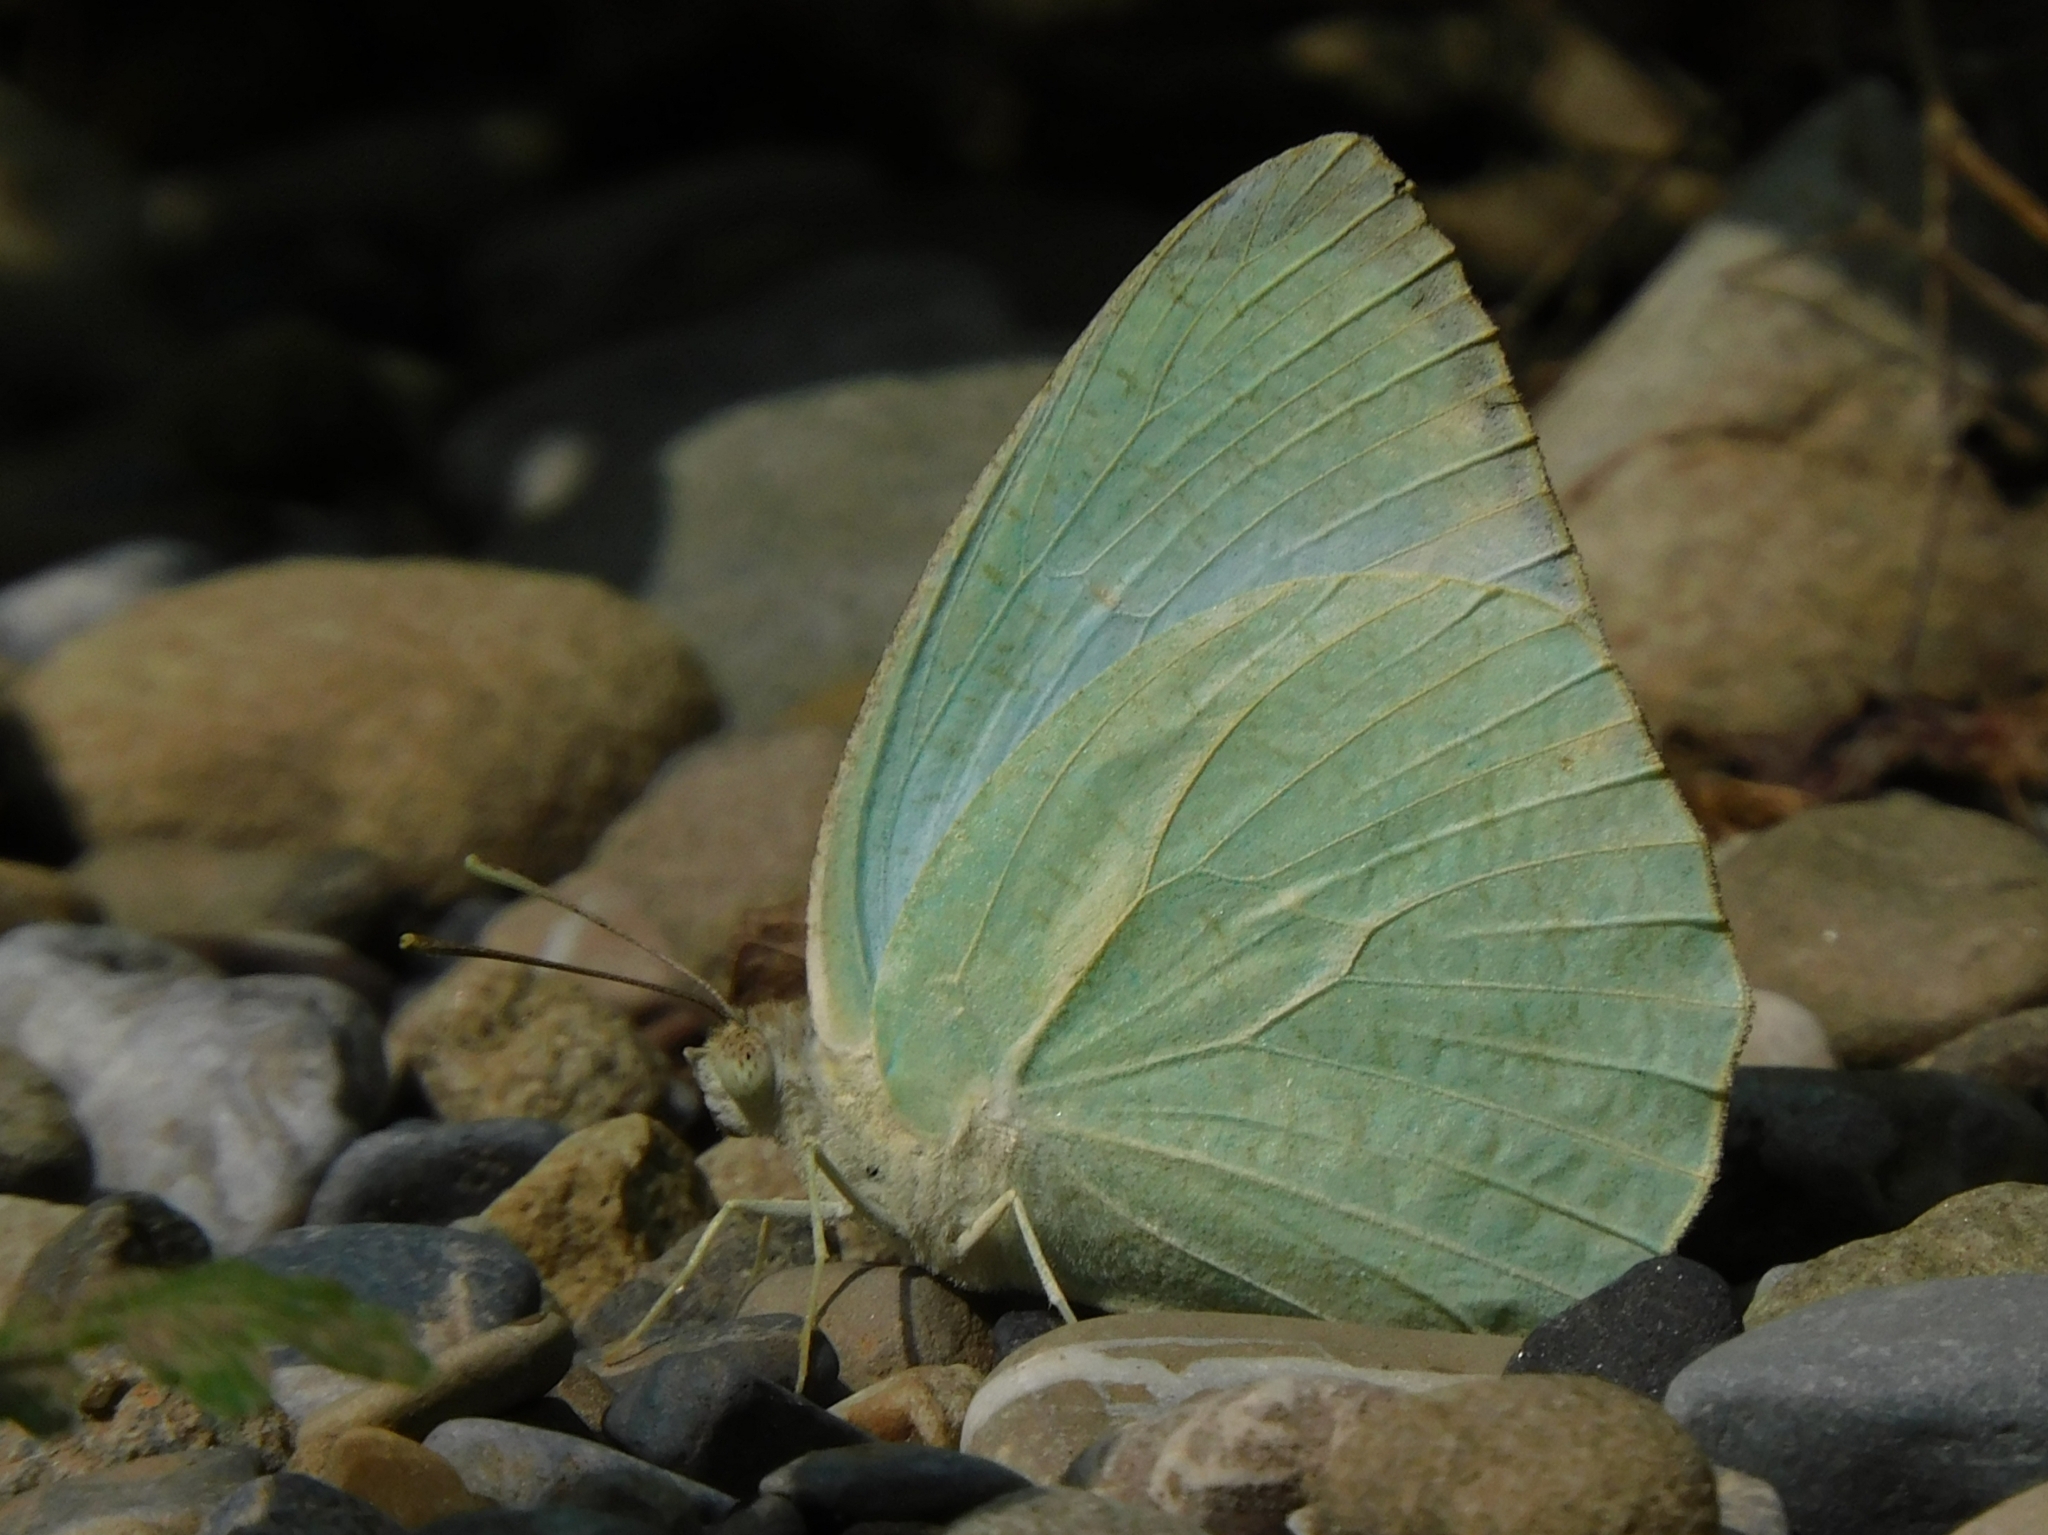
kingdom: Animalia
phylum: Arthropoda
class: Insecta
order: Lepidoptera
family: Pieridae
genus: Catopsilia
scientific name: Catopsilia pyranthe
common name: Mottled emigrant
